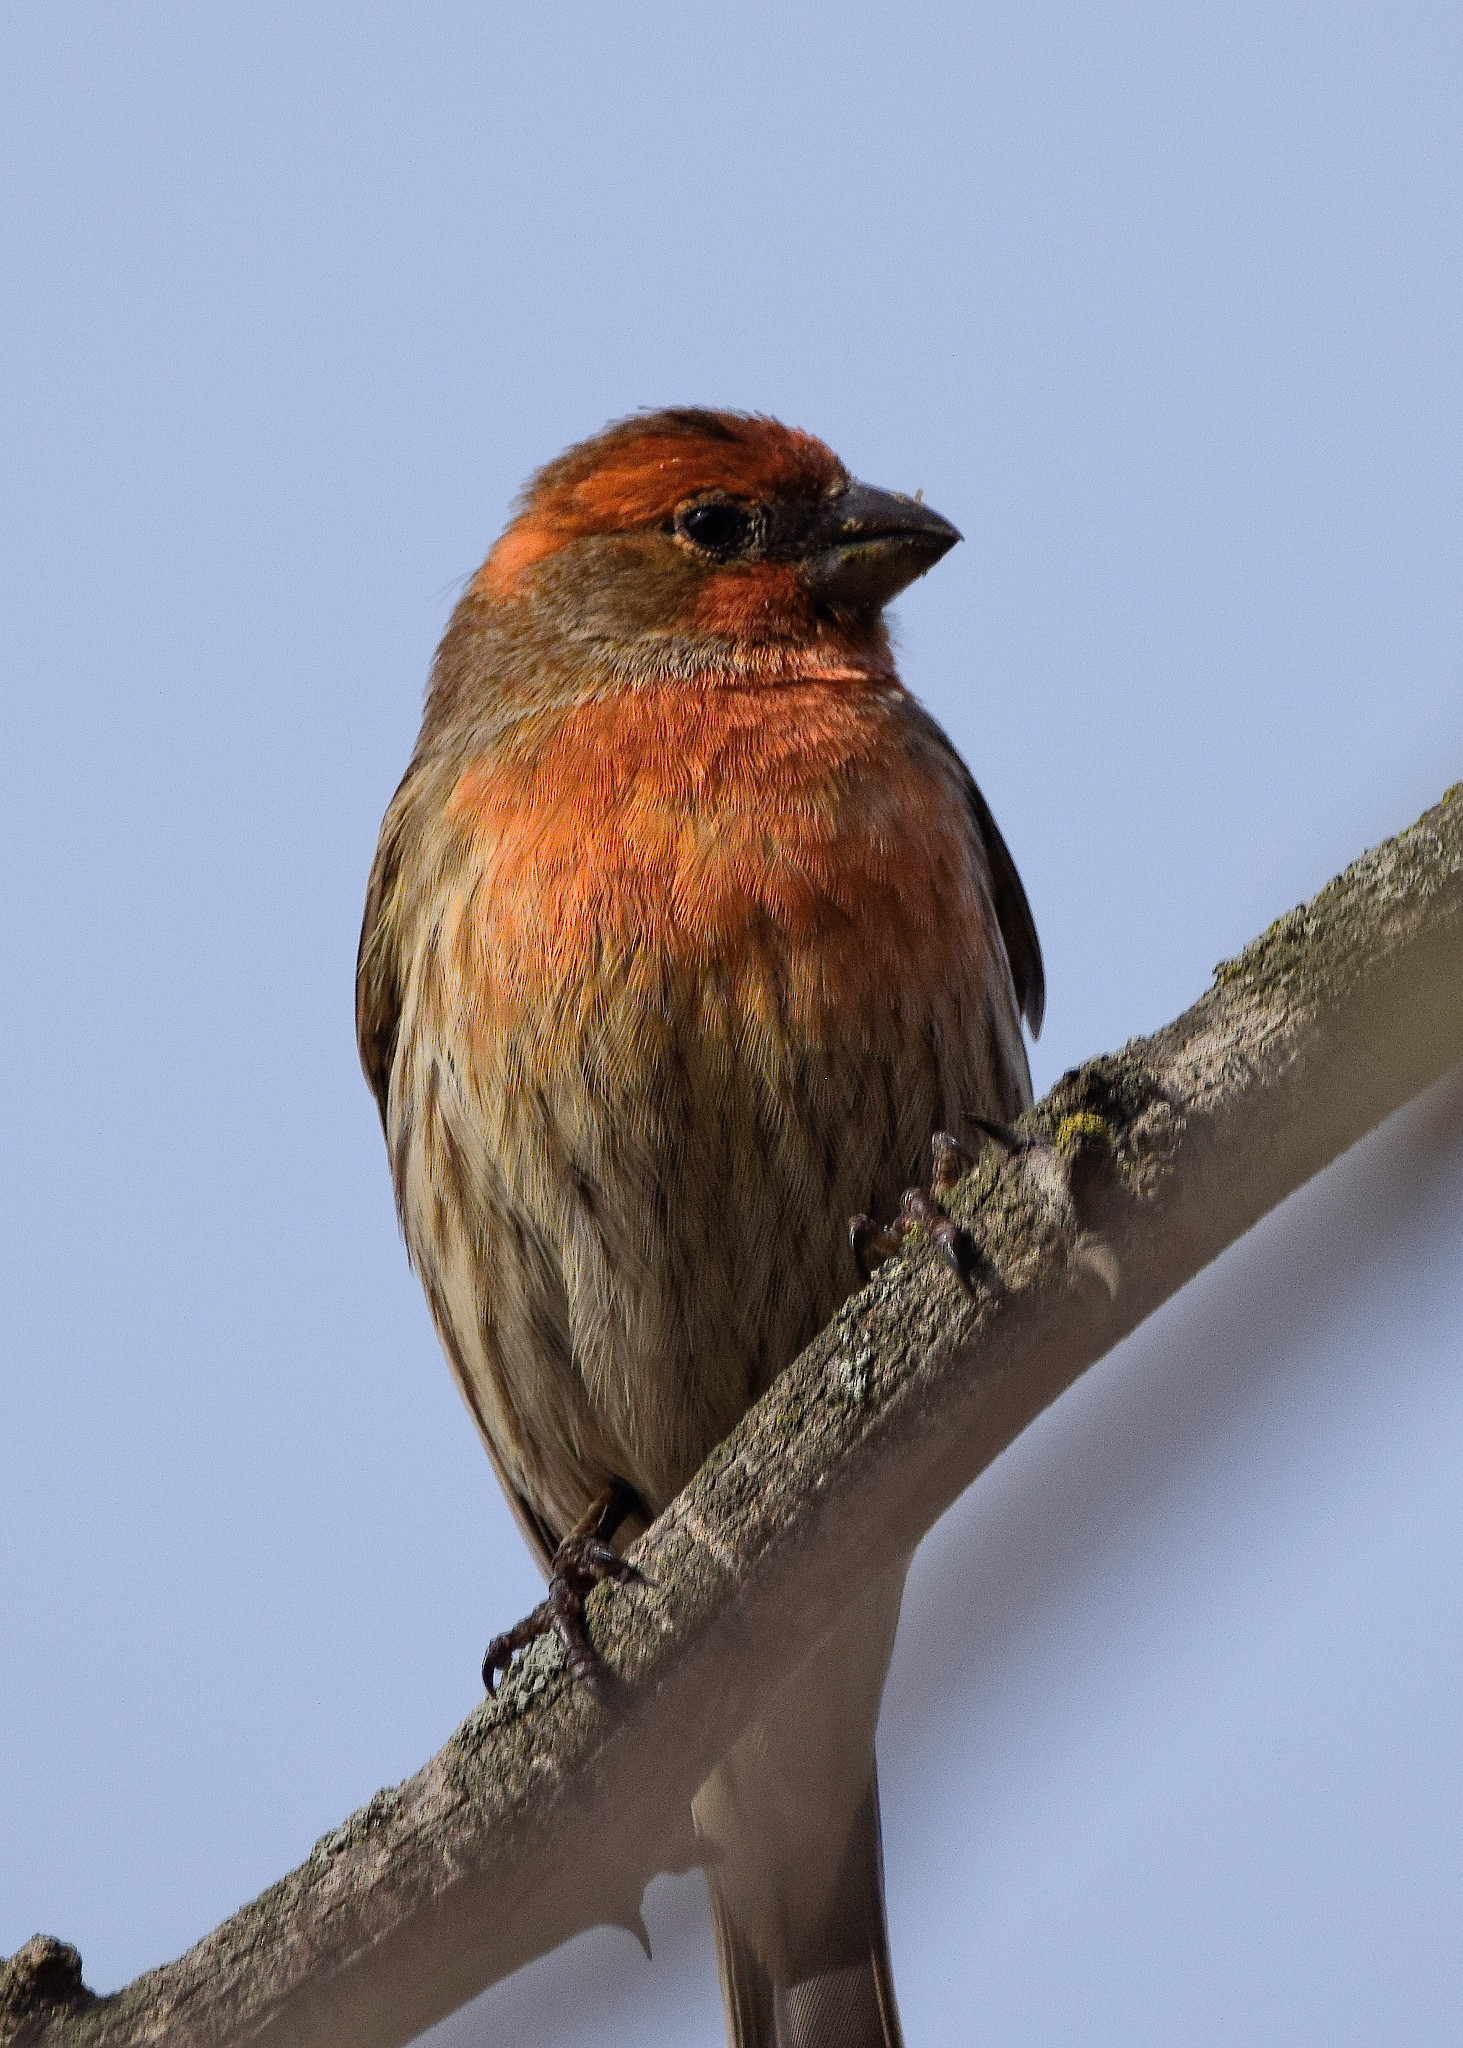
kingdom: Animalia
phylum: Chordata
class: Aves
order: Passeriformes
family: Fringillidae
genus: Haemorhous
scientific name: Haemorhous mexicanus
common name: House finch
